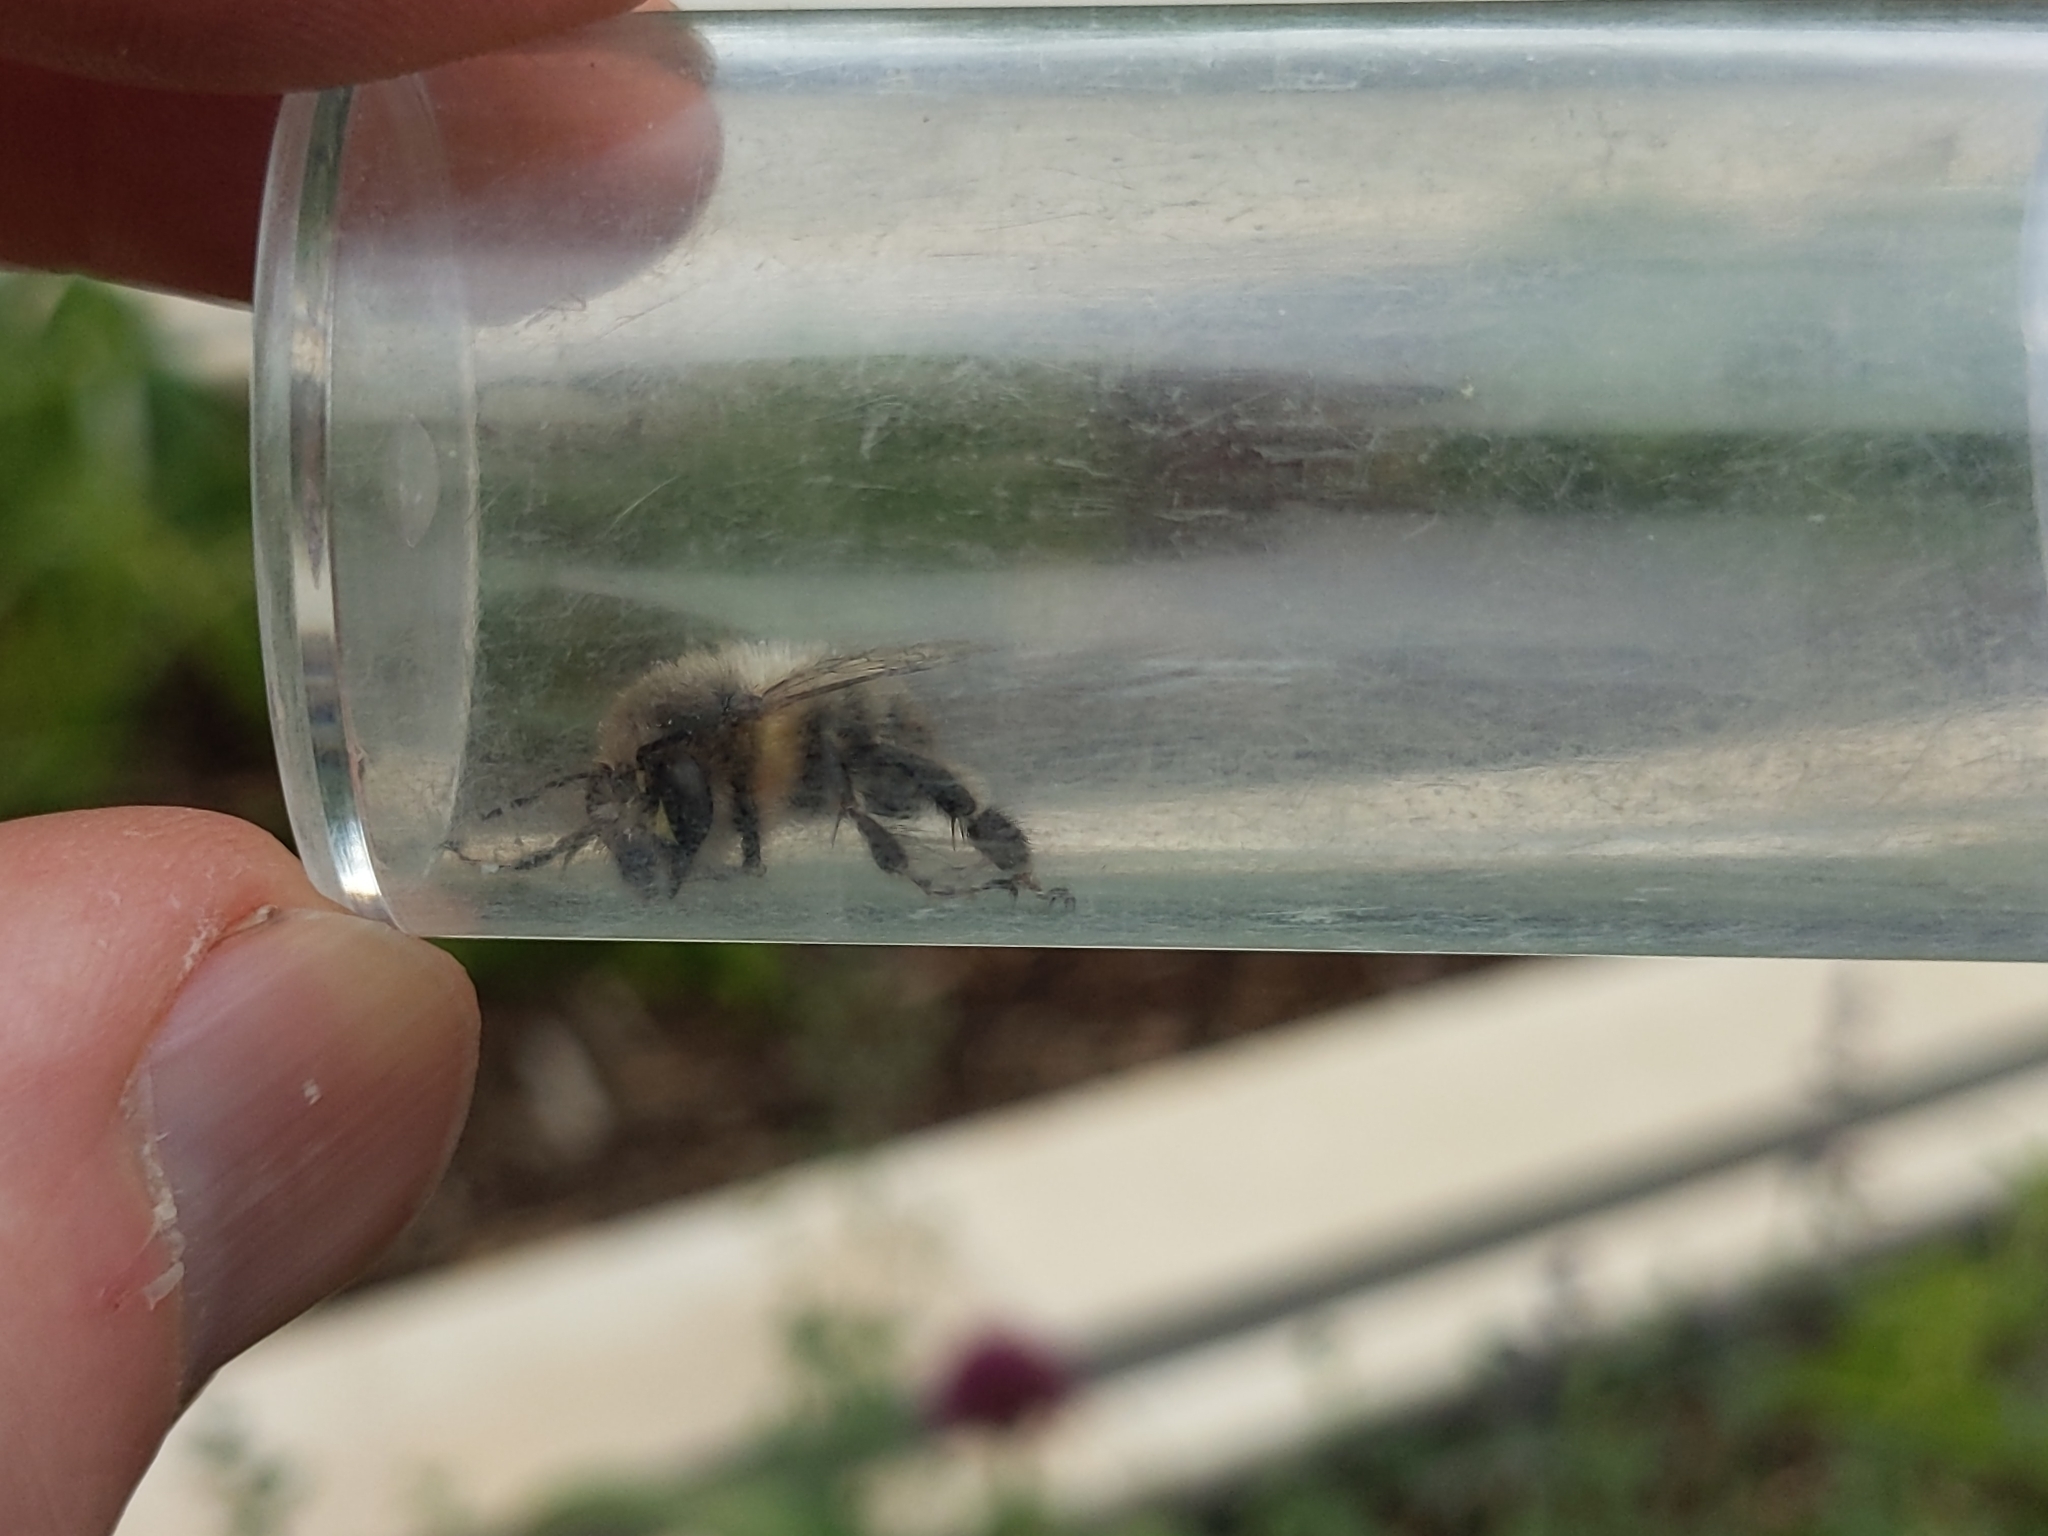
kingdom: Animalia
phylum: Arthropoda
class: Insecta
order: Hymenoptera
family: Apidae
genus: Anthophora
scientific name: Anthophora plumipes
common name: Hairy-footed flower bee
